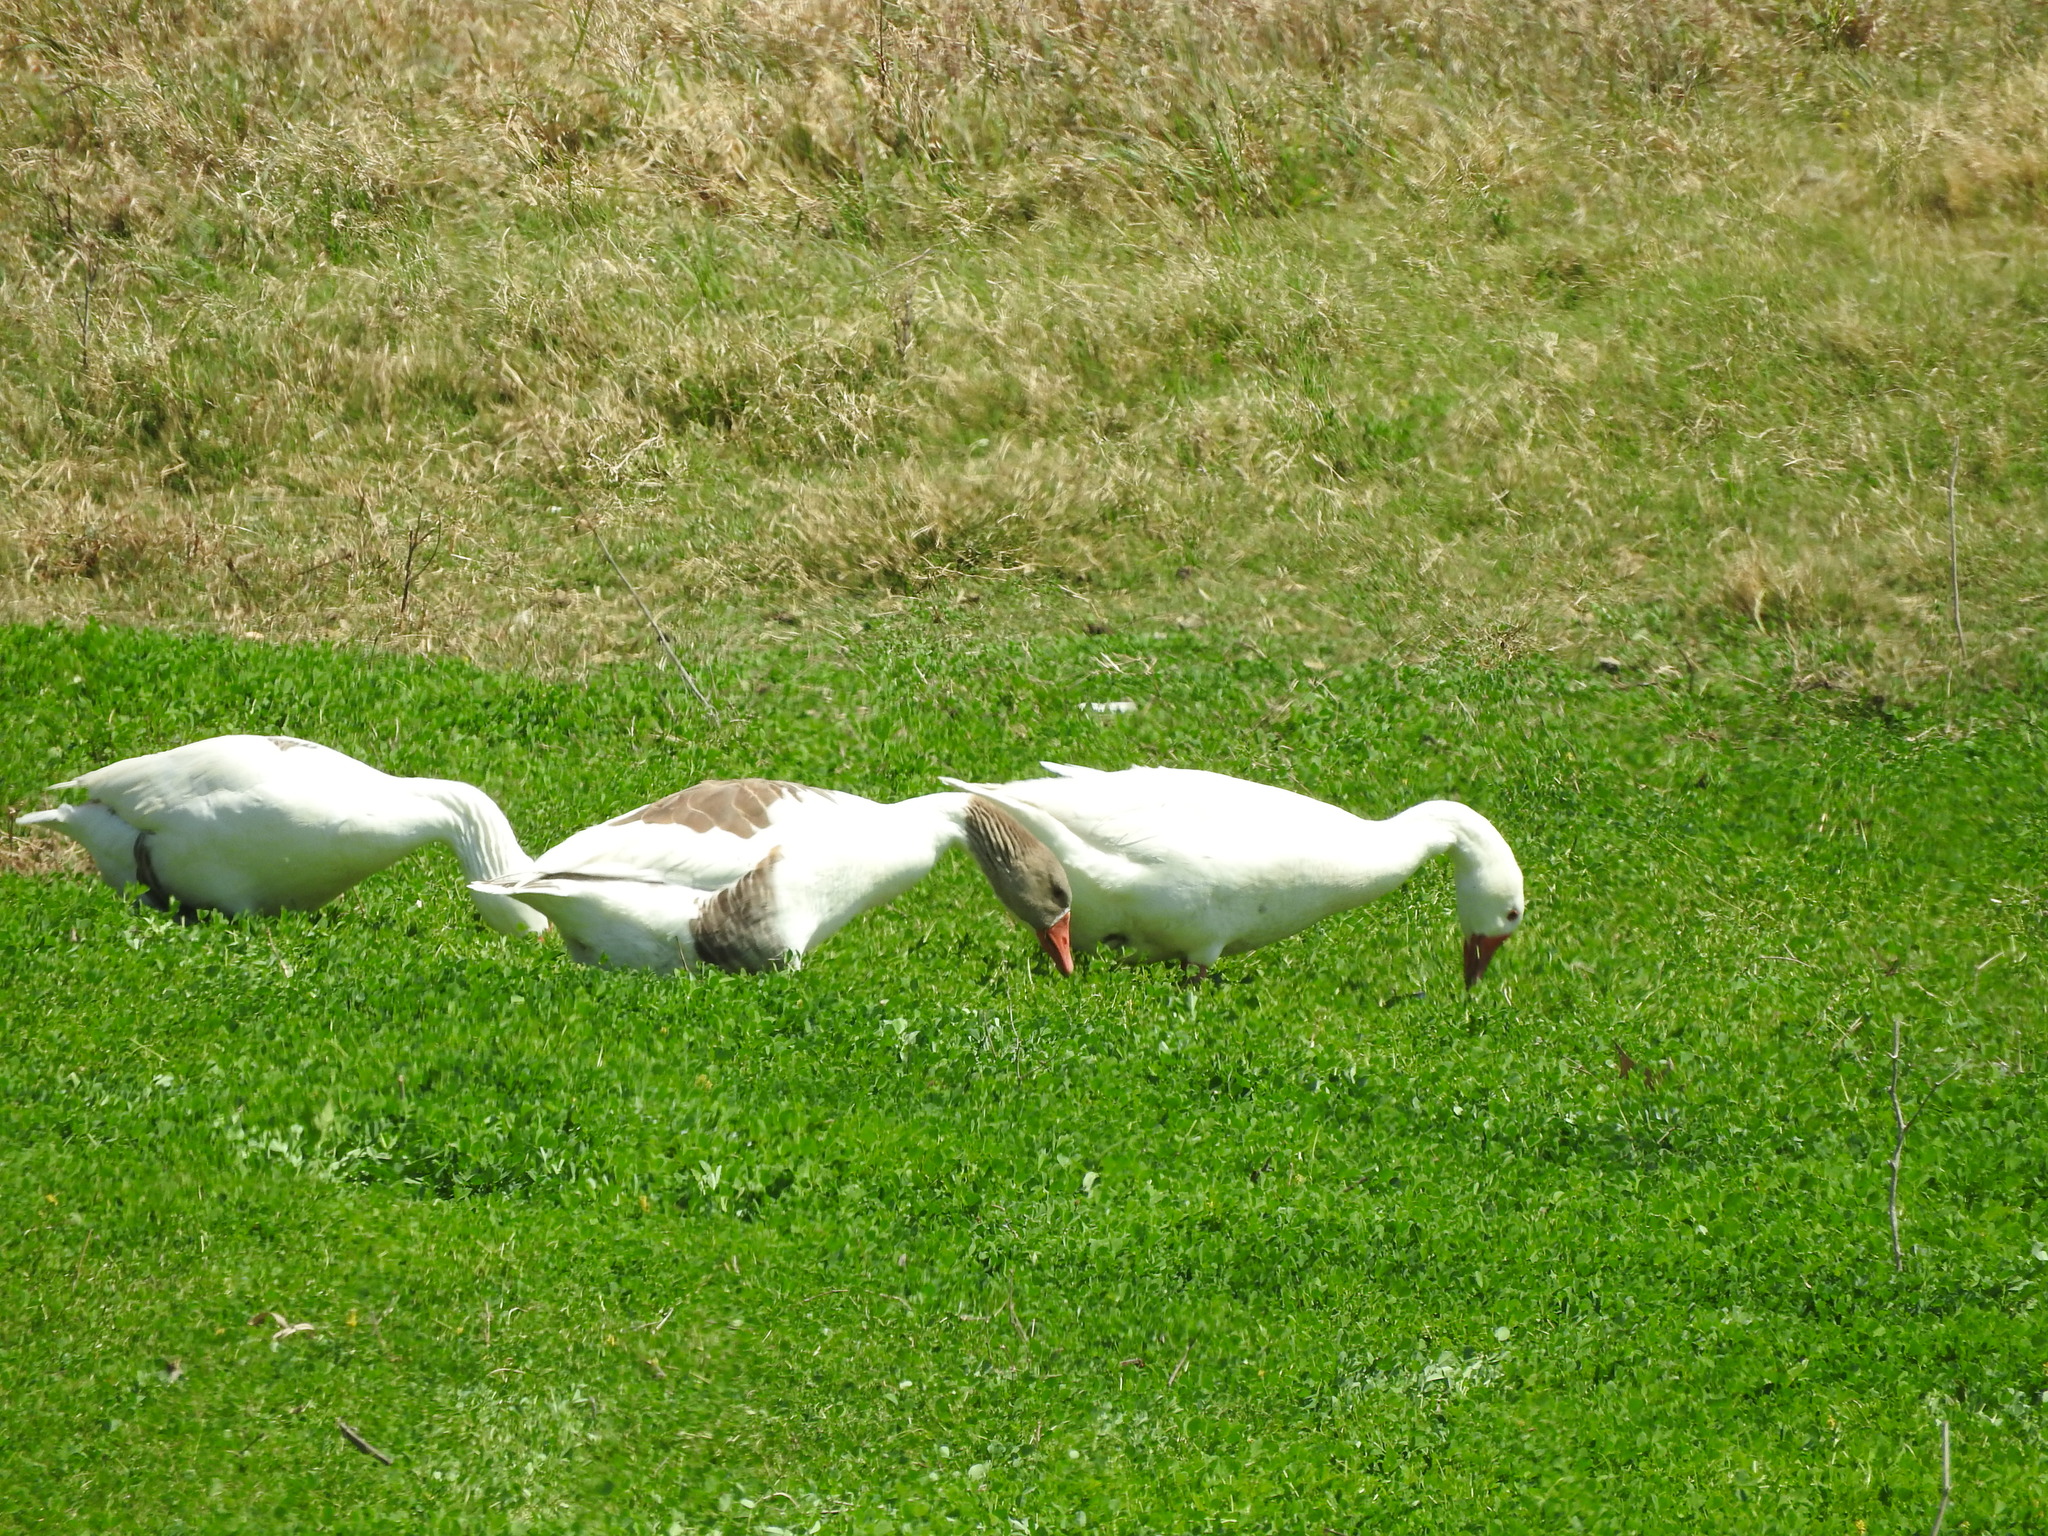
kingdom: Animalia
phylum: Chordata
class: Aves
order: Anseriformes
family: Anatidae
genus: Anser
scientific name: Anser anser
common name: Greylag goose
